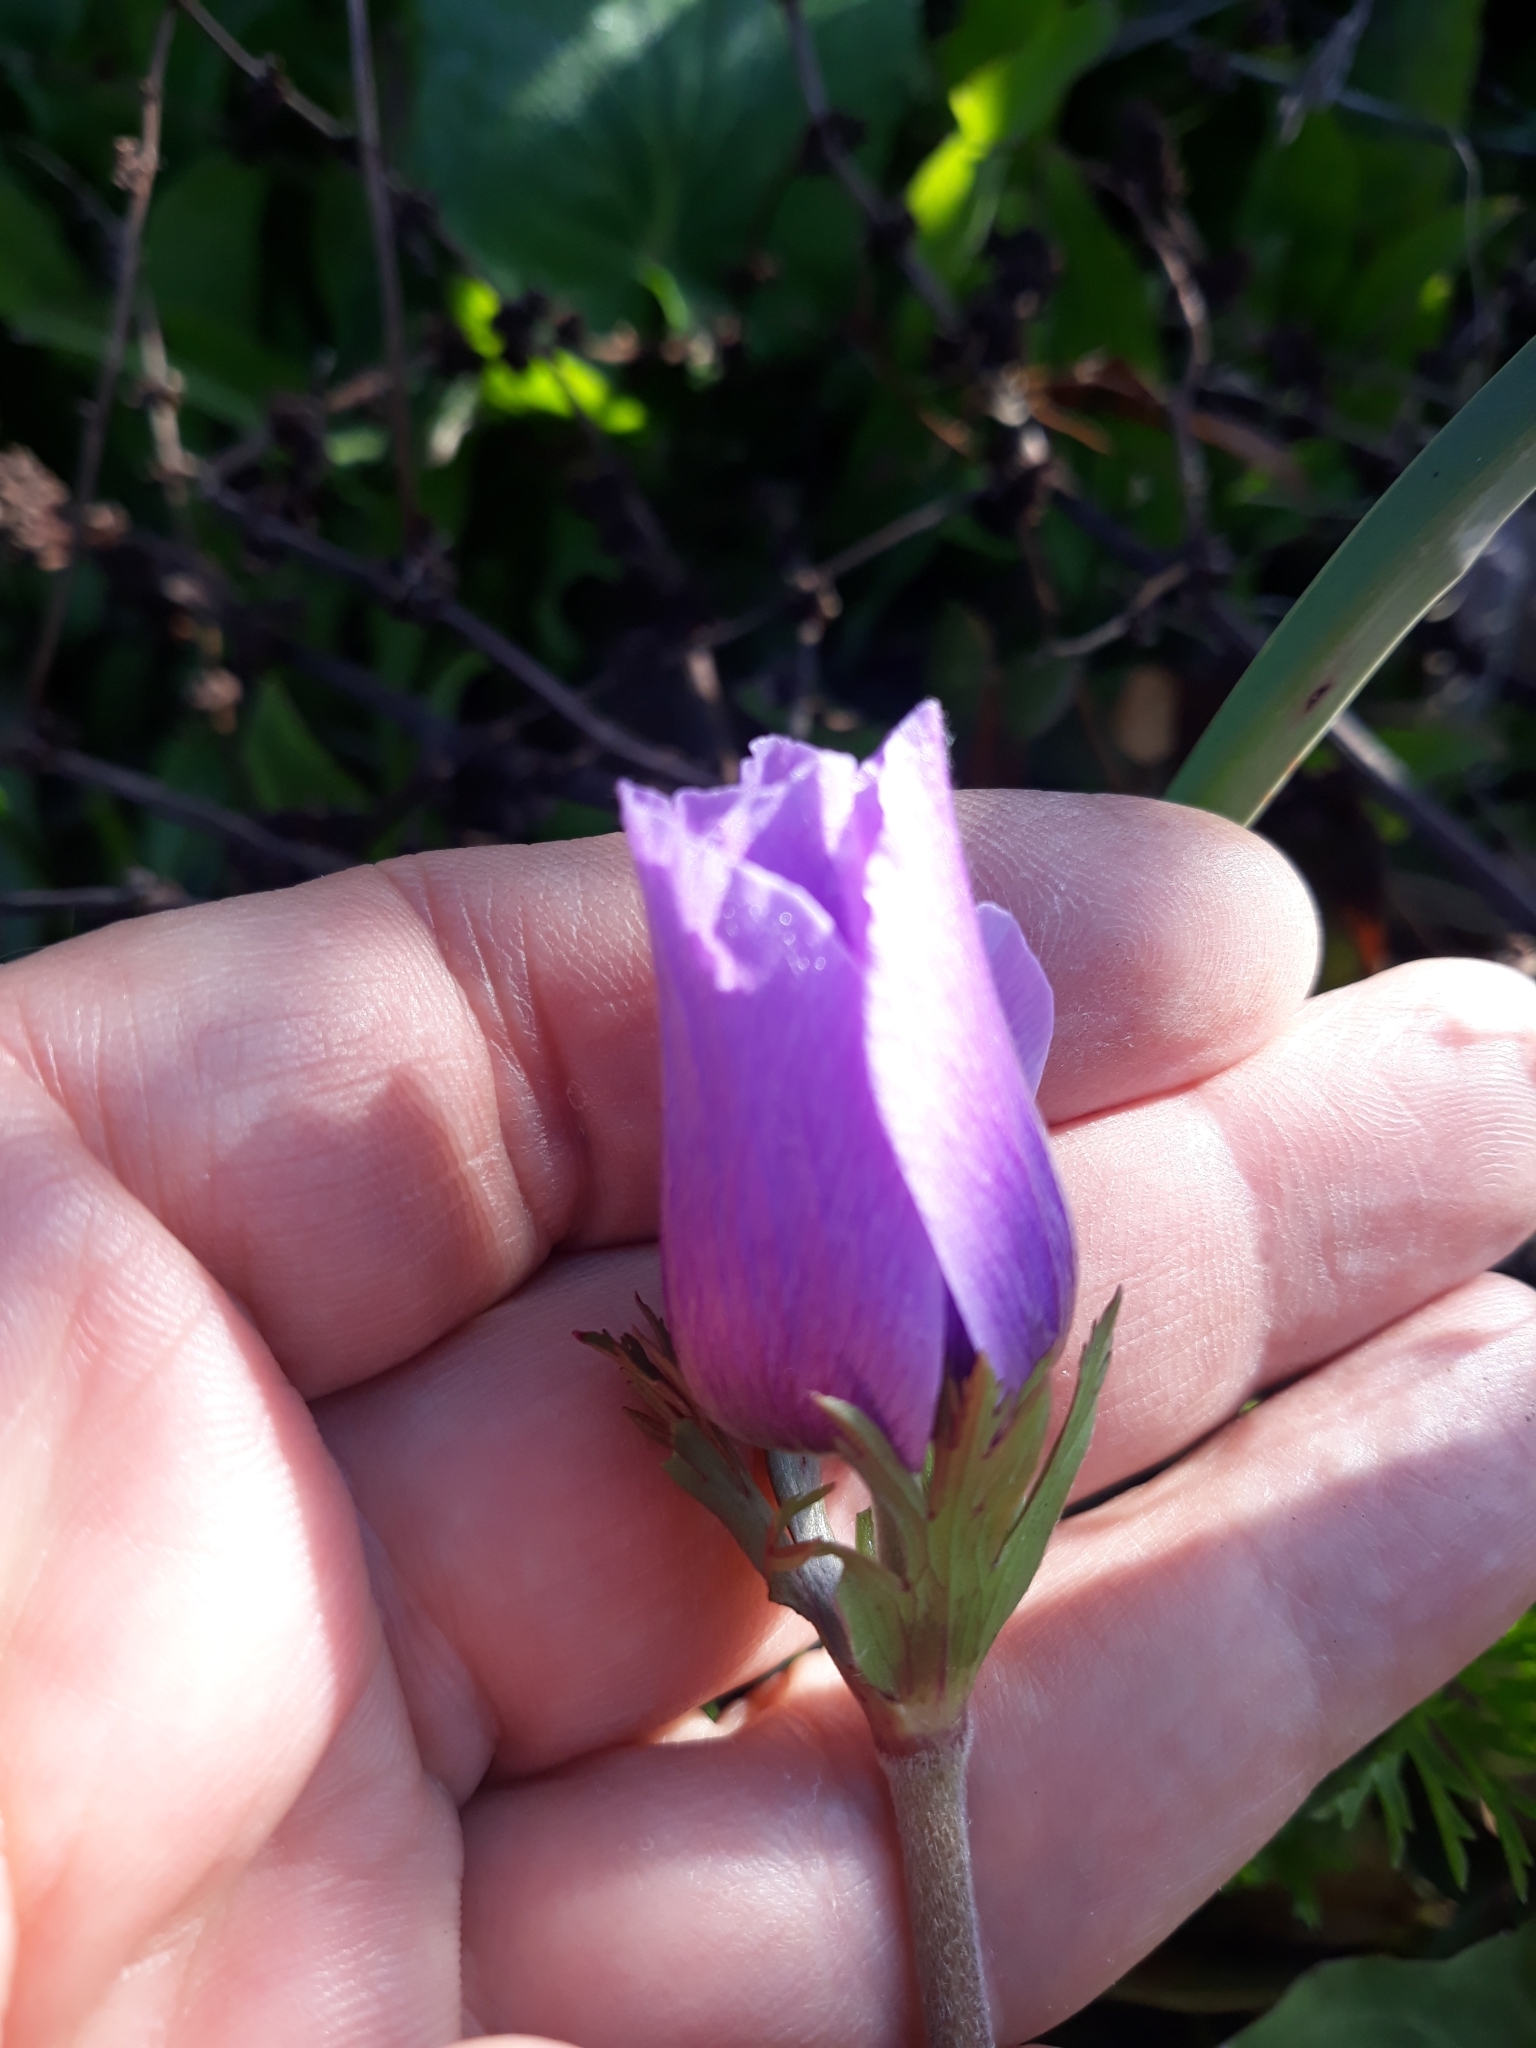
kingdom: Plantae
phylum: Tracheophyta
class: Magnoliopsida
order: Ranunculales
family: Ranunculaceae
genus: Anemone
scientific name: Anemone coronaria
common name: Poppy anemone
